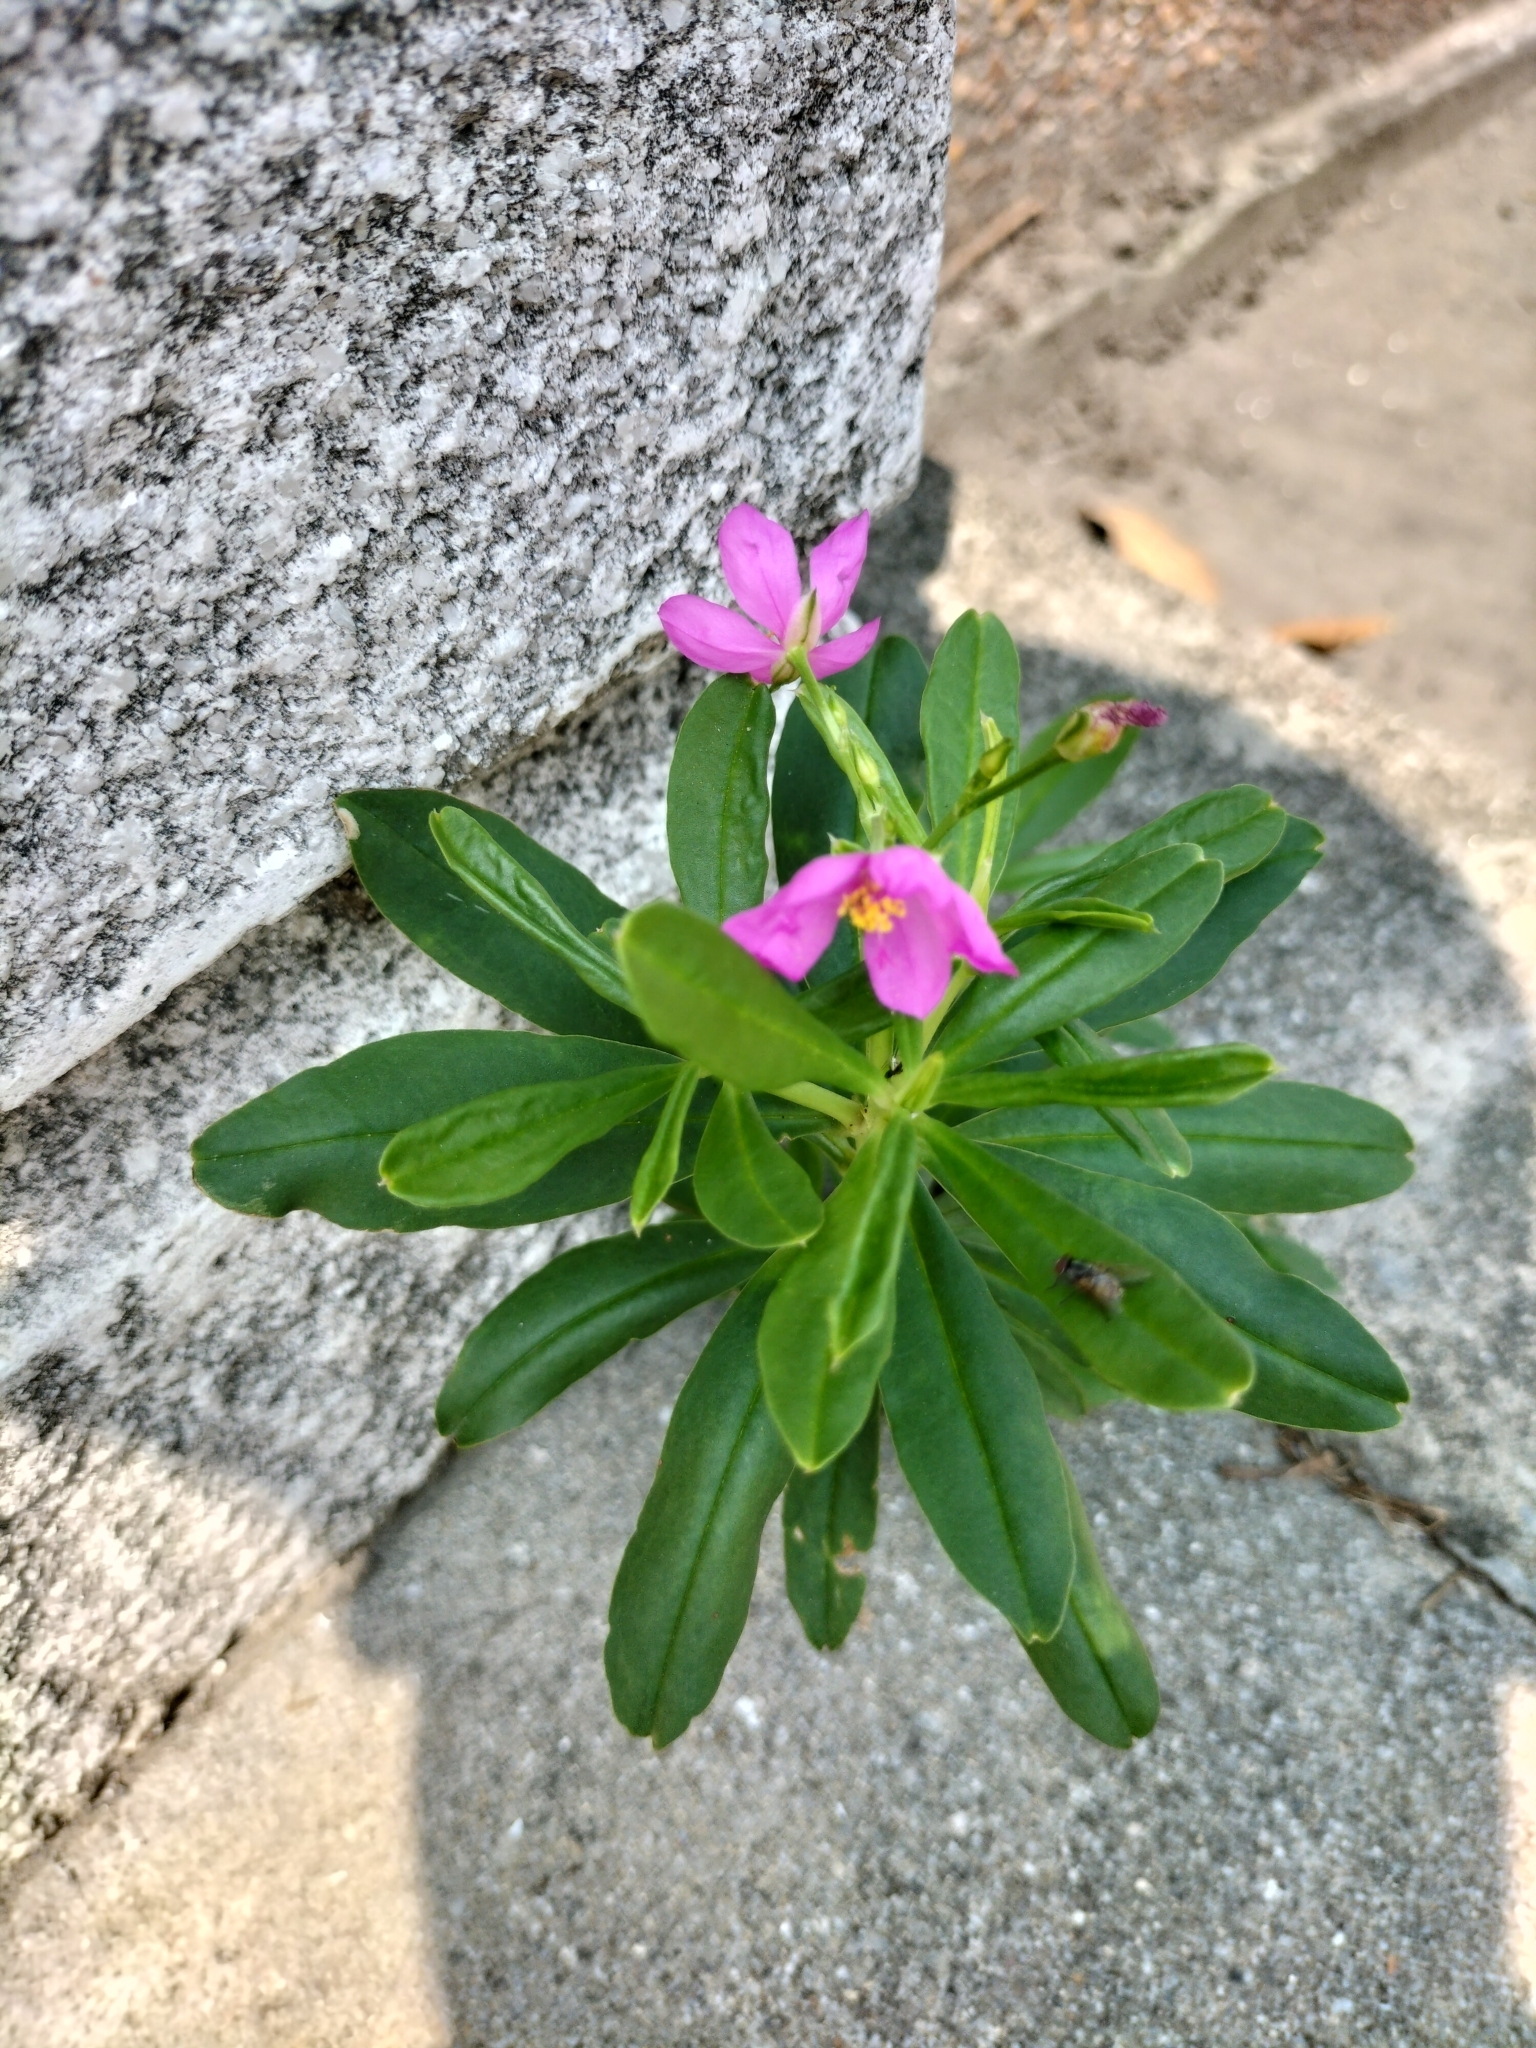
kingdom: Plantae
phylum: Tracheophyta
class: Magnoliopsida
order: Caryophyllales
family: Talinaceae
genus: Talinum
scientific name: Talinum fruticosum
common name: Verdolaga-francesa
